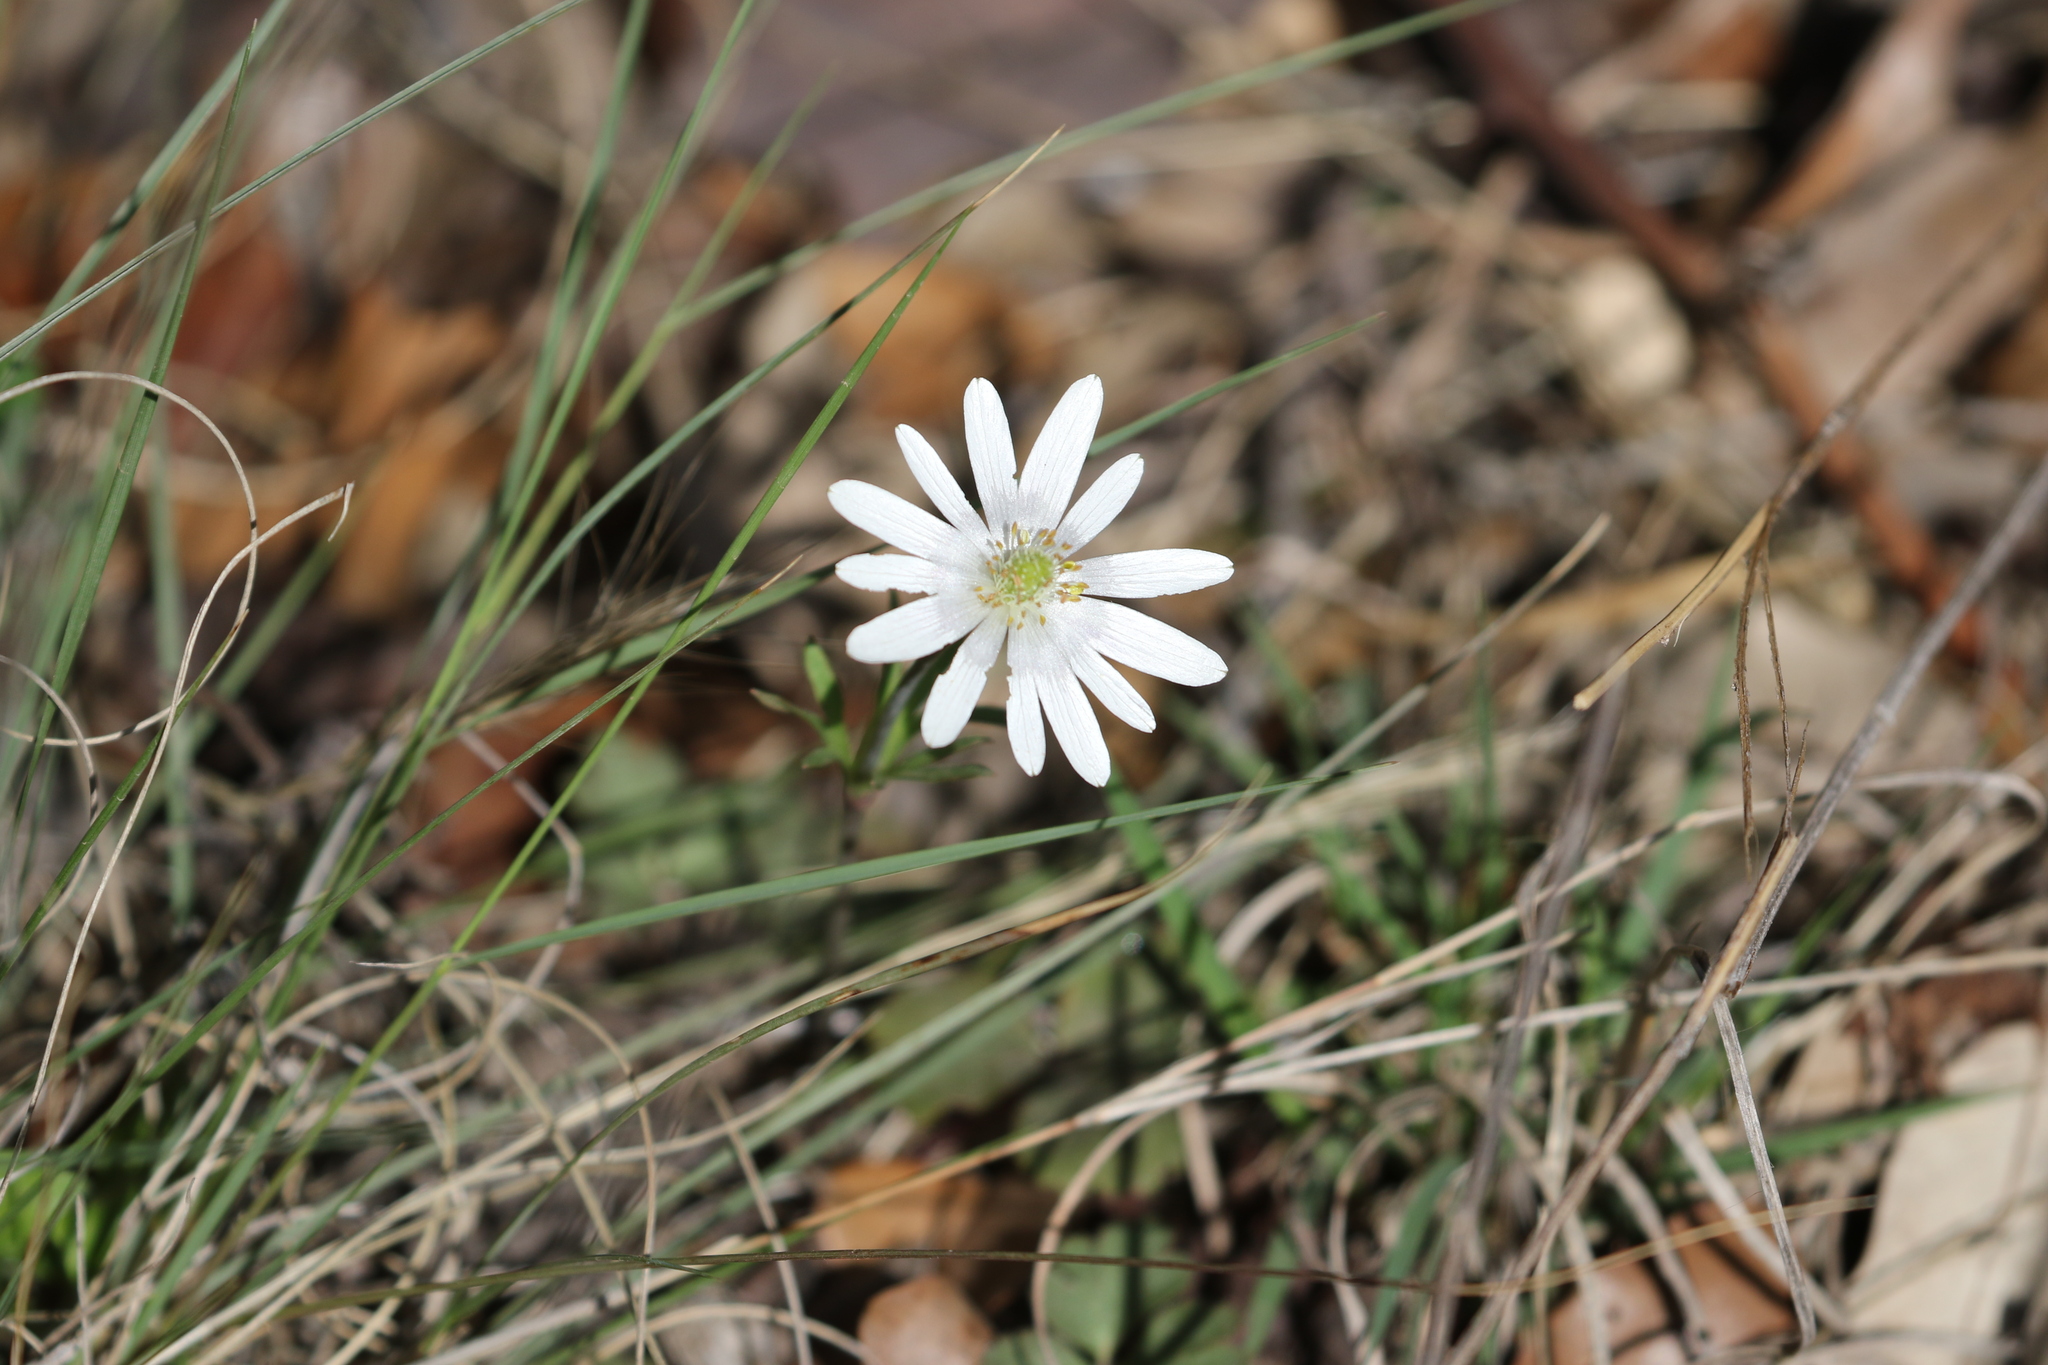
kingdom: Plantae
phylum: Tracheophyta
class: Magnoliopsida
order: Ranunculales
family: Ranunculaceae
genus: Anemone
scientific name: Anemone berlandieri
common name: Ten-petal anemone
